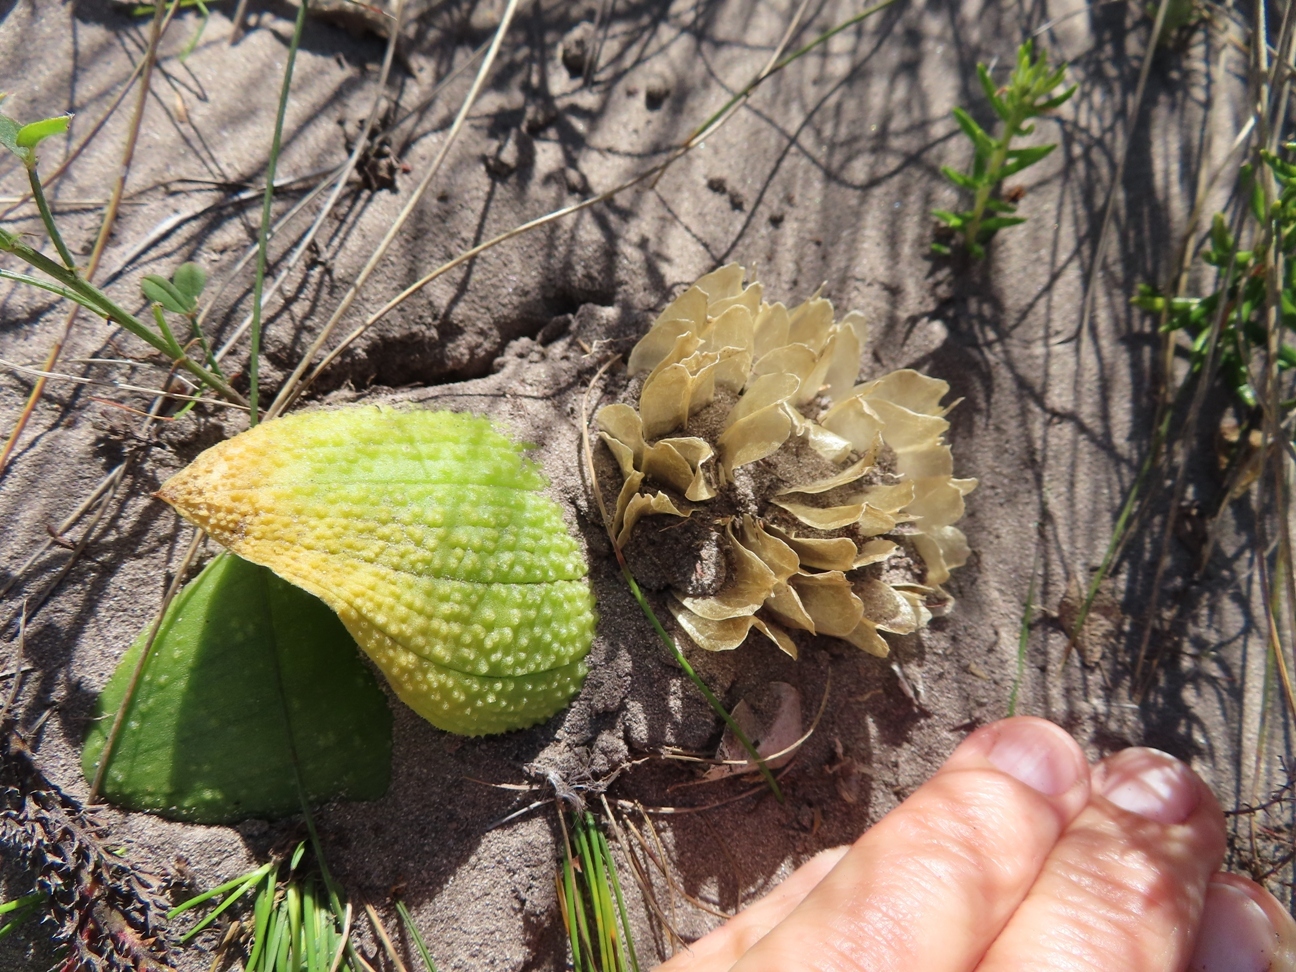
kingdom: Plantae
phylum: Tracheophyta
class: Liliopsida
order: Asparagales
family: Asparagaceae
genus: Massonia
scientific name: Massonia longipes
